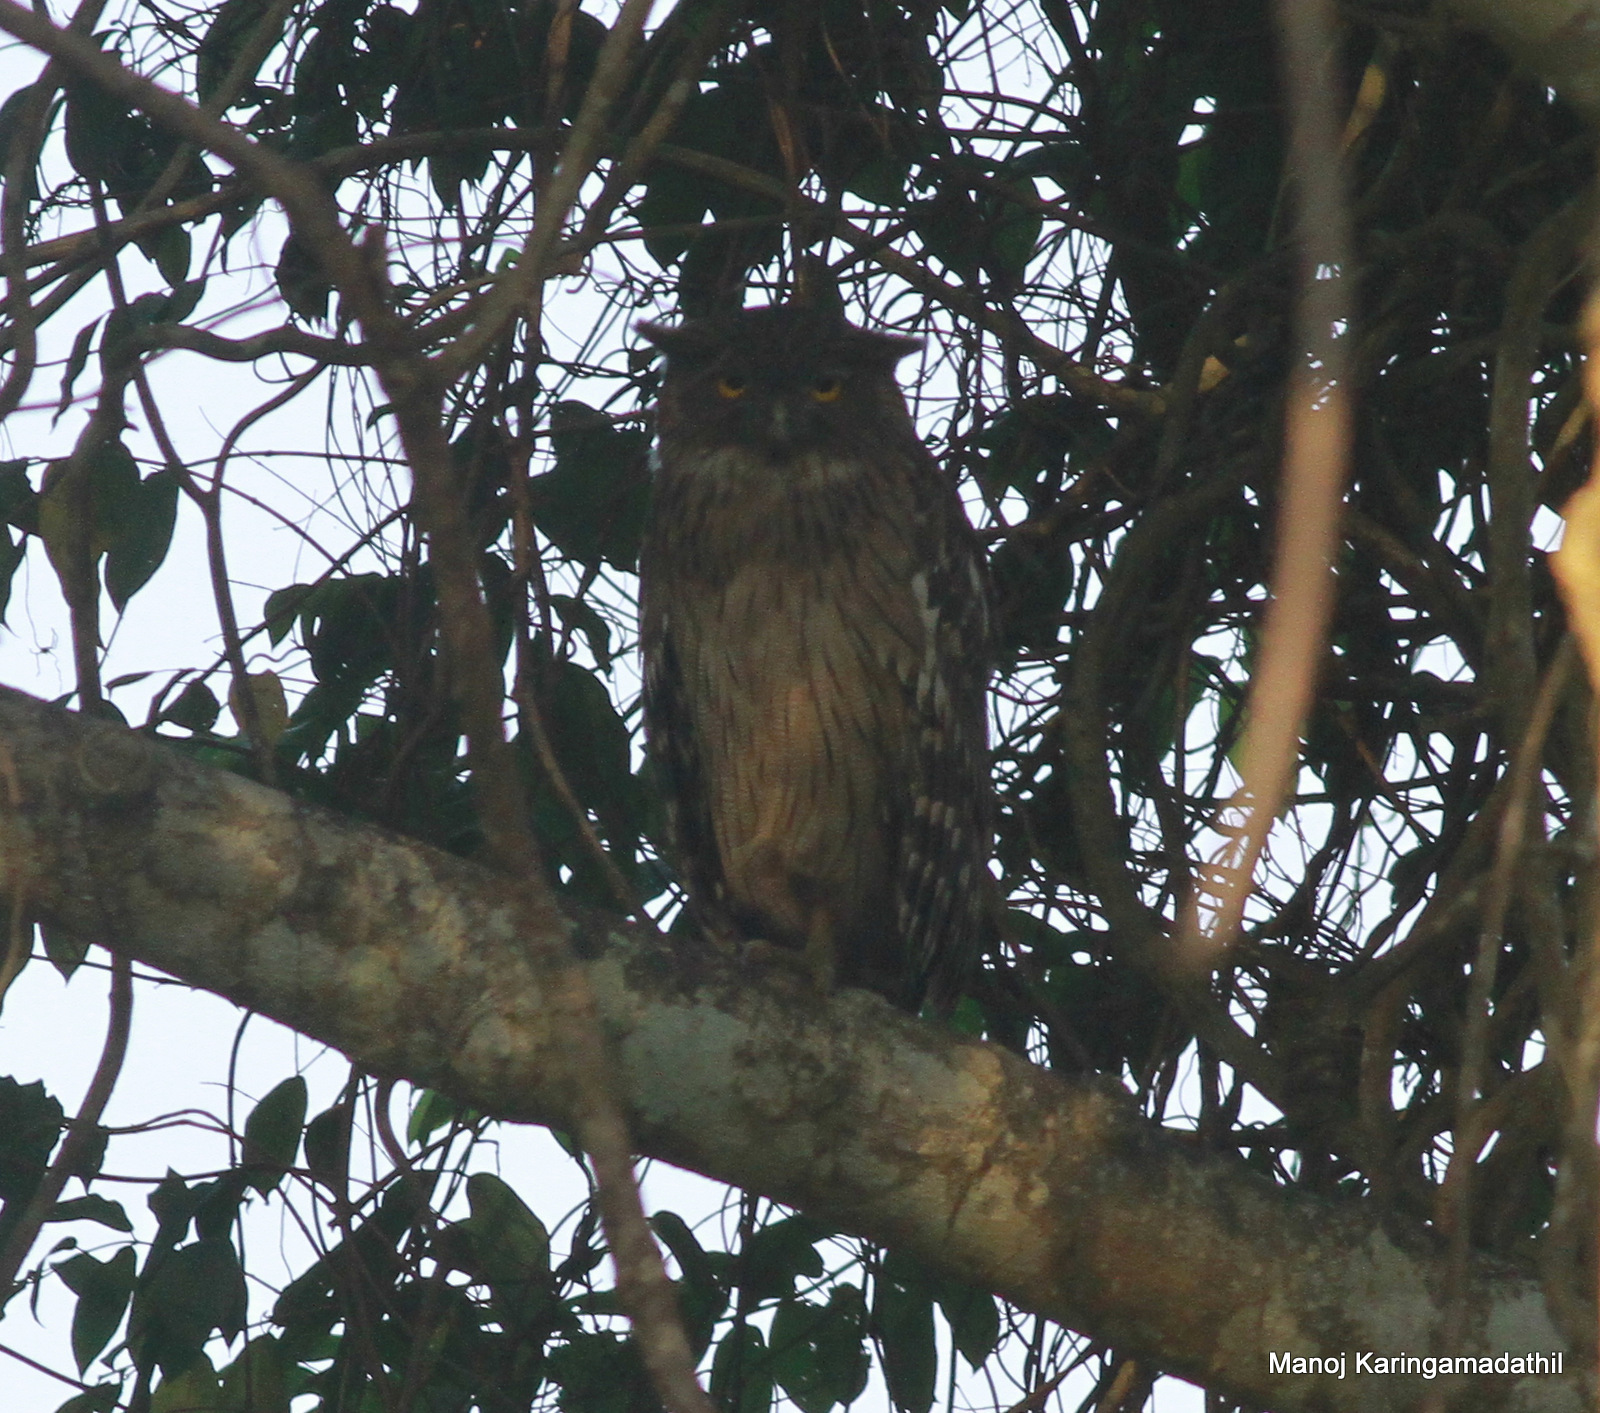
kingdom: Animalia
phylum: Chordata
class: Aves
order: Strigiformes
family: Strigidae
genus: Ketupa
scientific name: Ketupa zeylonensis
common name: Brown fish owl
